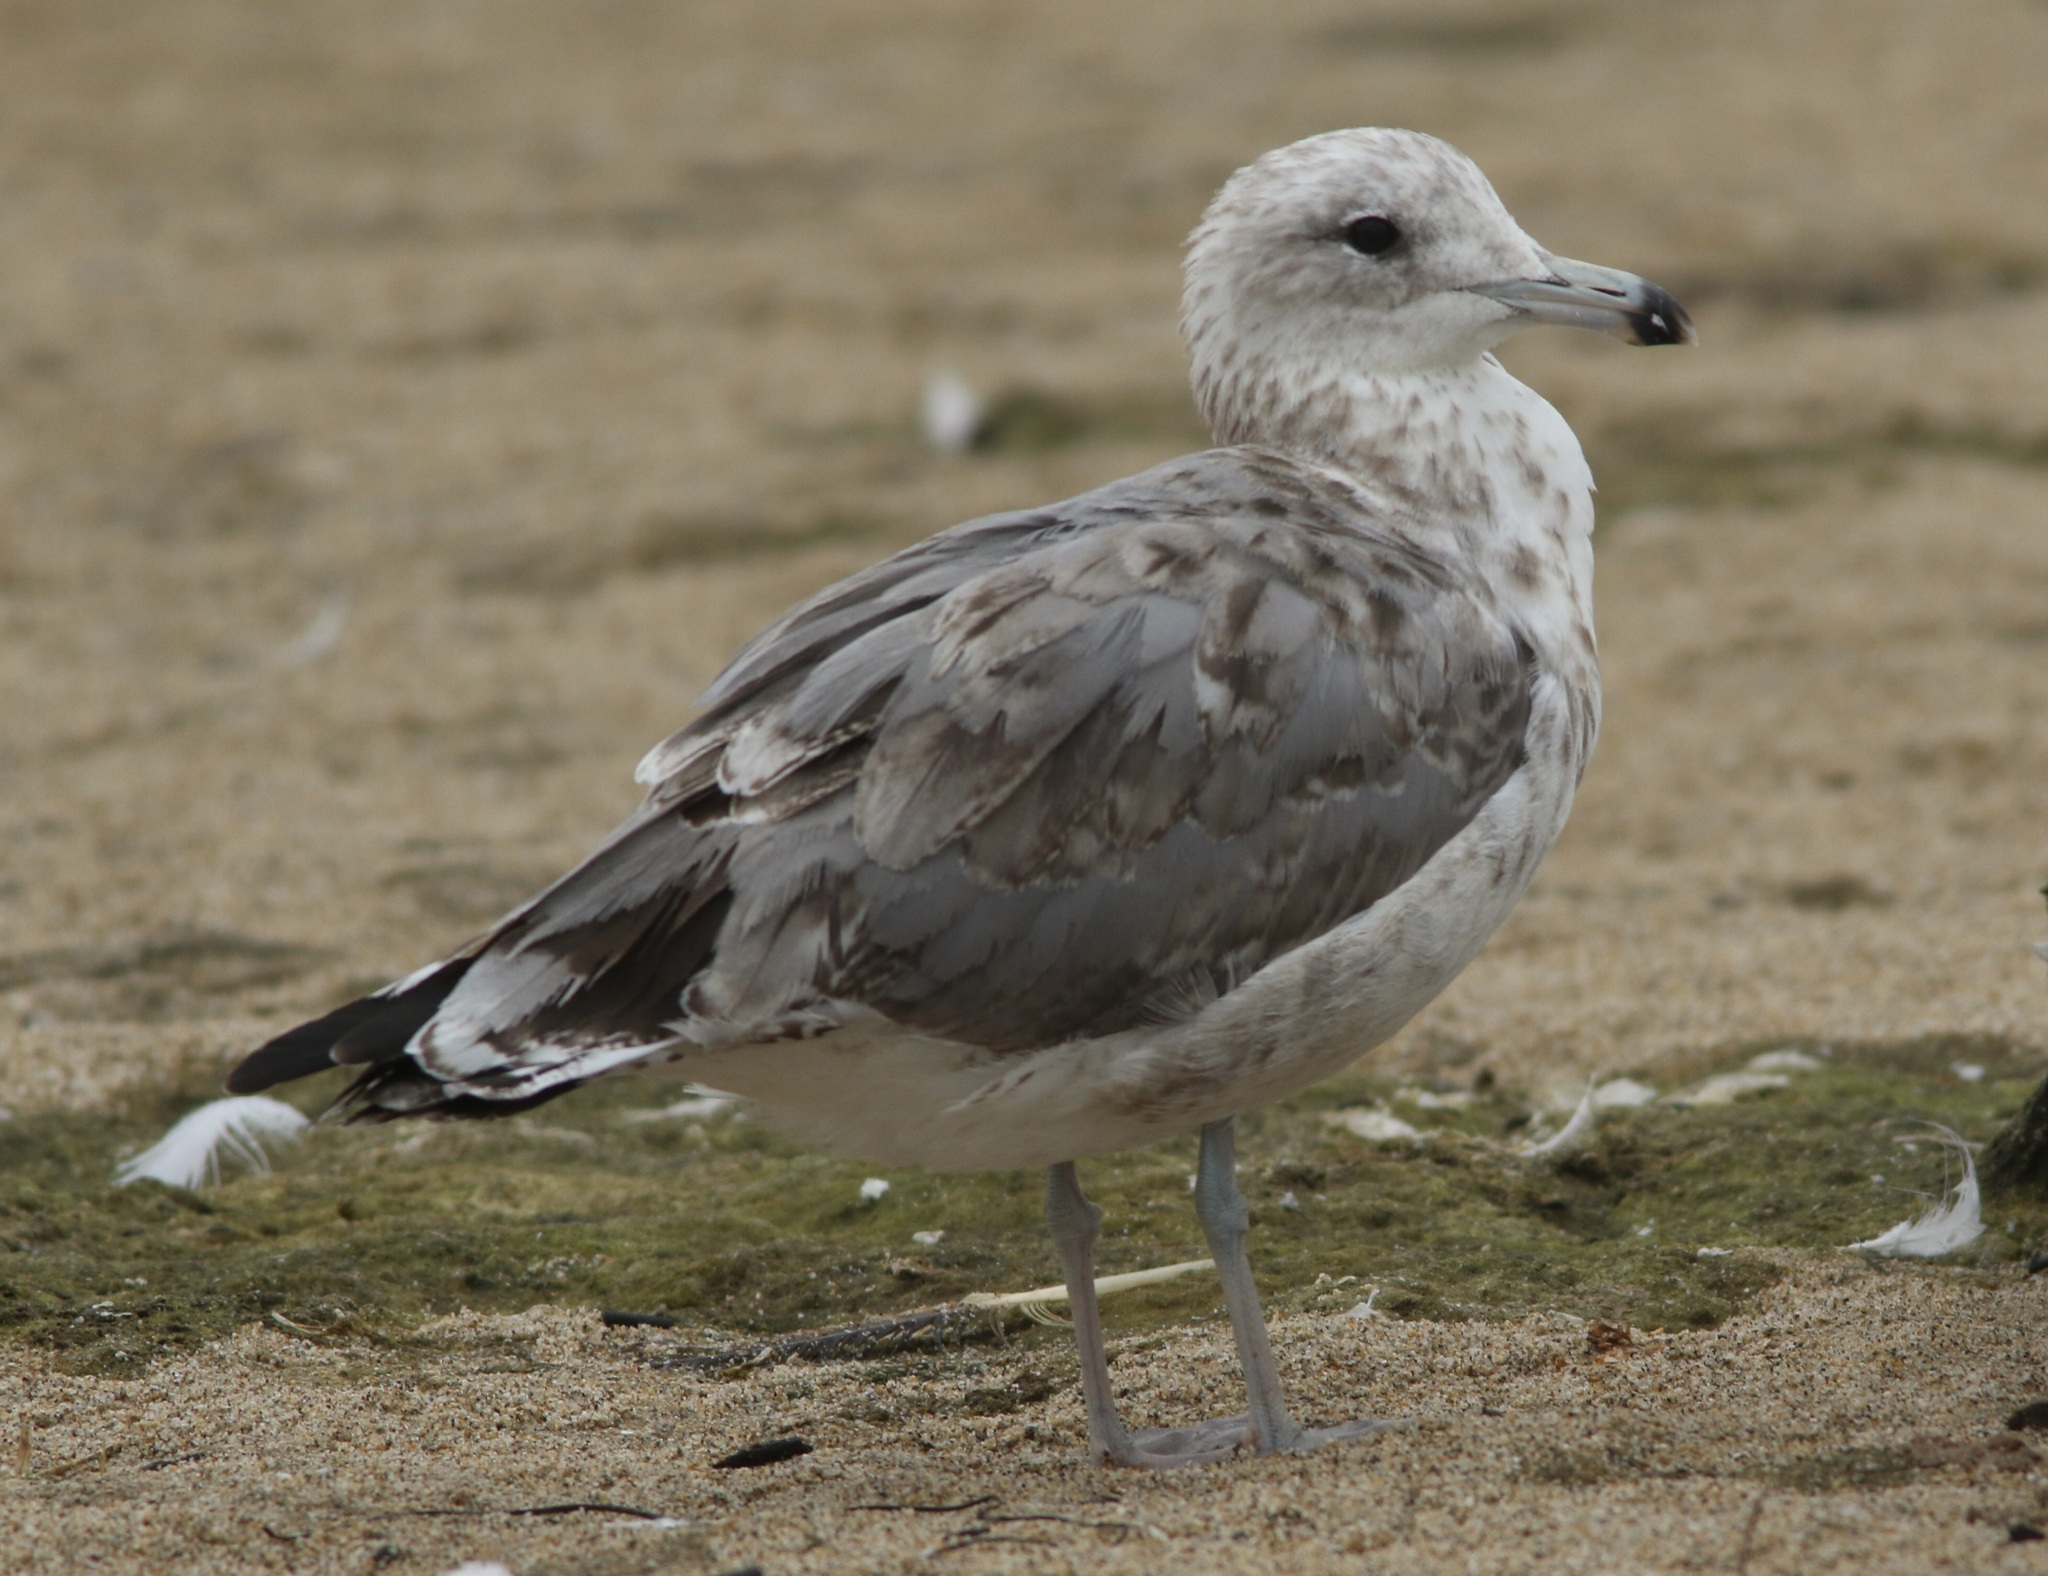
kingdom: Animalia
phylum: Chordata
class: Aves
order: Charadriiformes
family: Laridae
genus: Larus
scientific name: Larus californicus
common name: California gull
